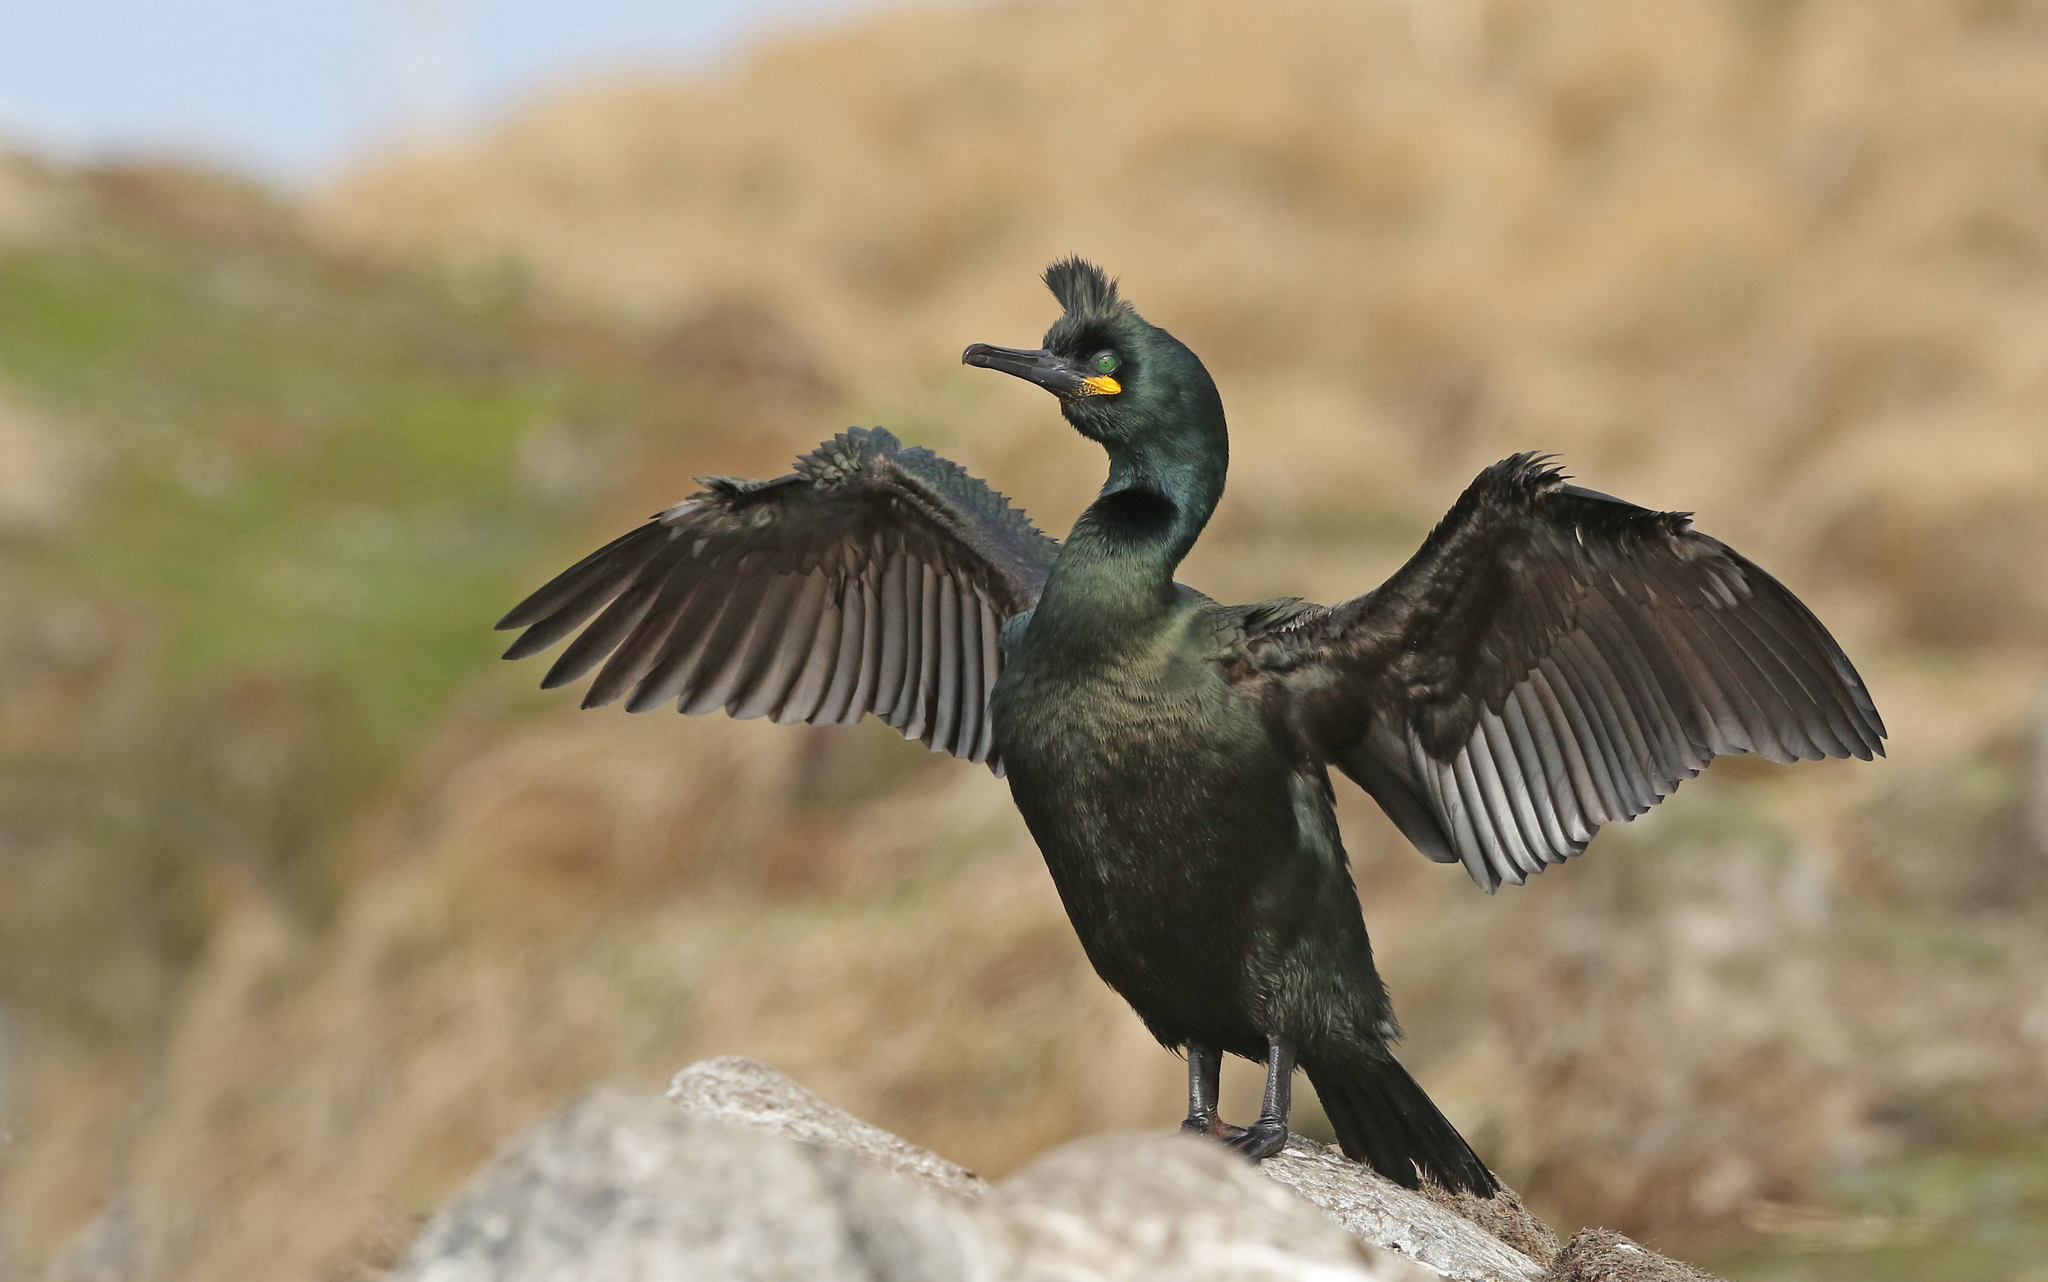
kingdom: Animalia
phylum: Chordata
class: Aves
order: Suliformes
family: Phalacrocoracidae
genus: Phalacrocorax
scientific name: Phalacrocorax aristotelis
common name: European shag
